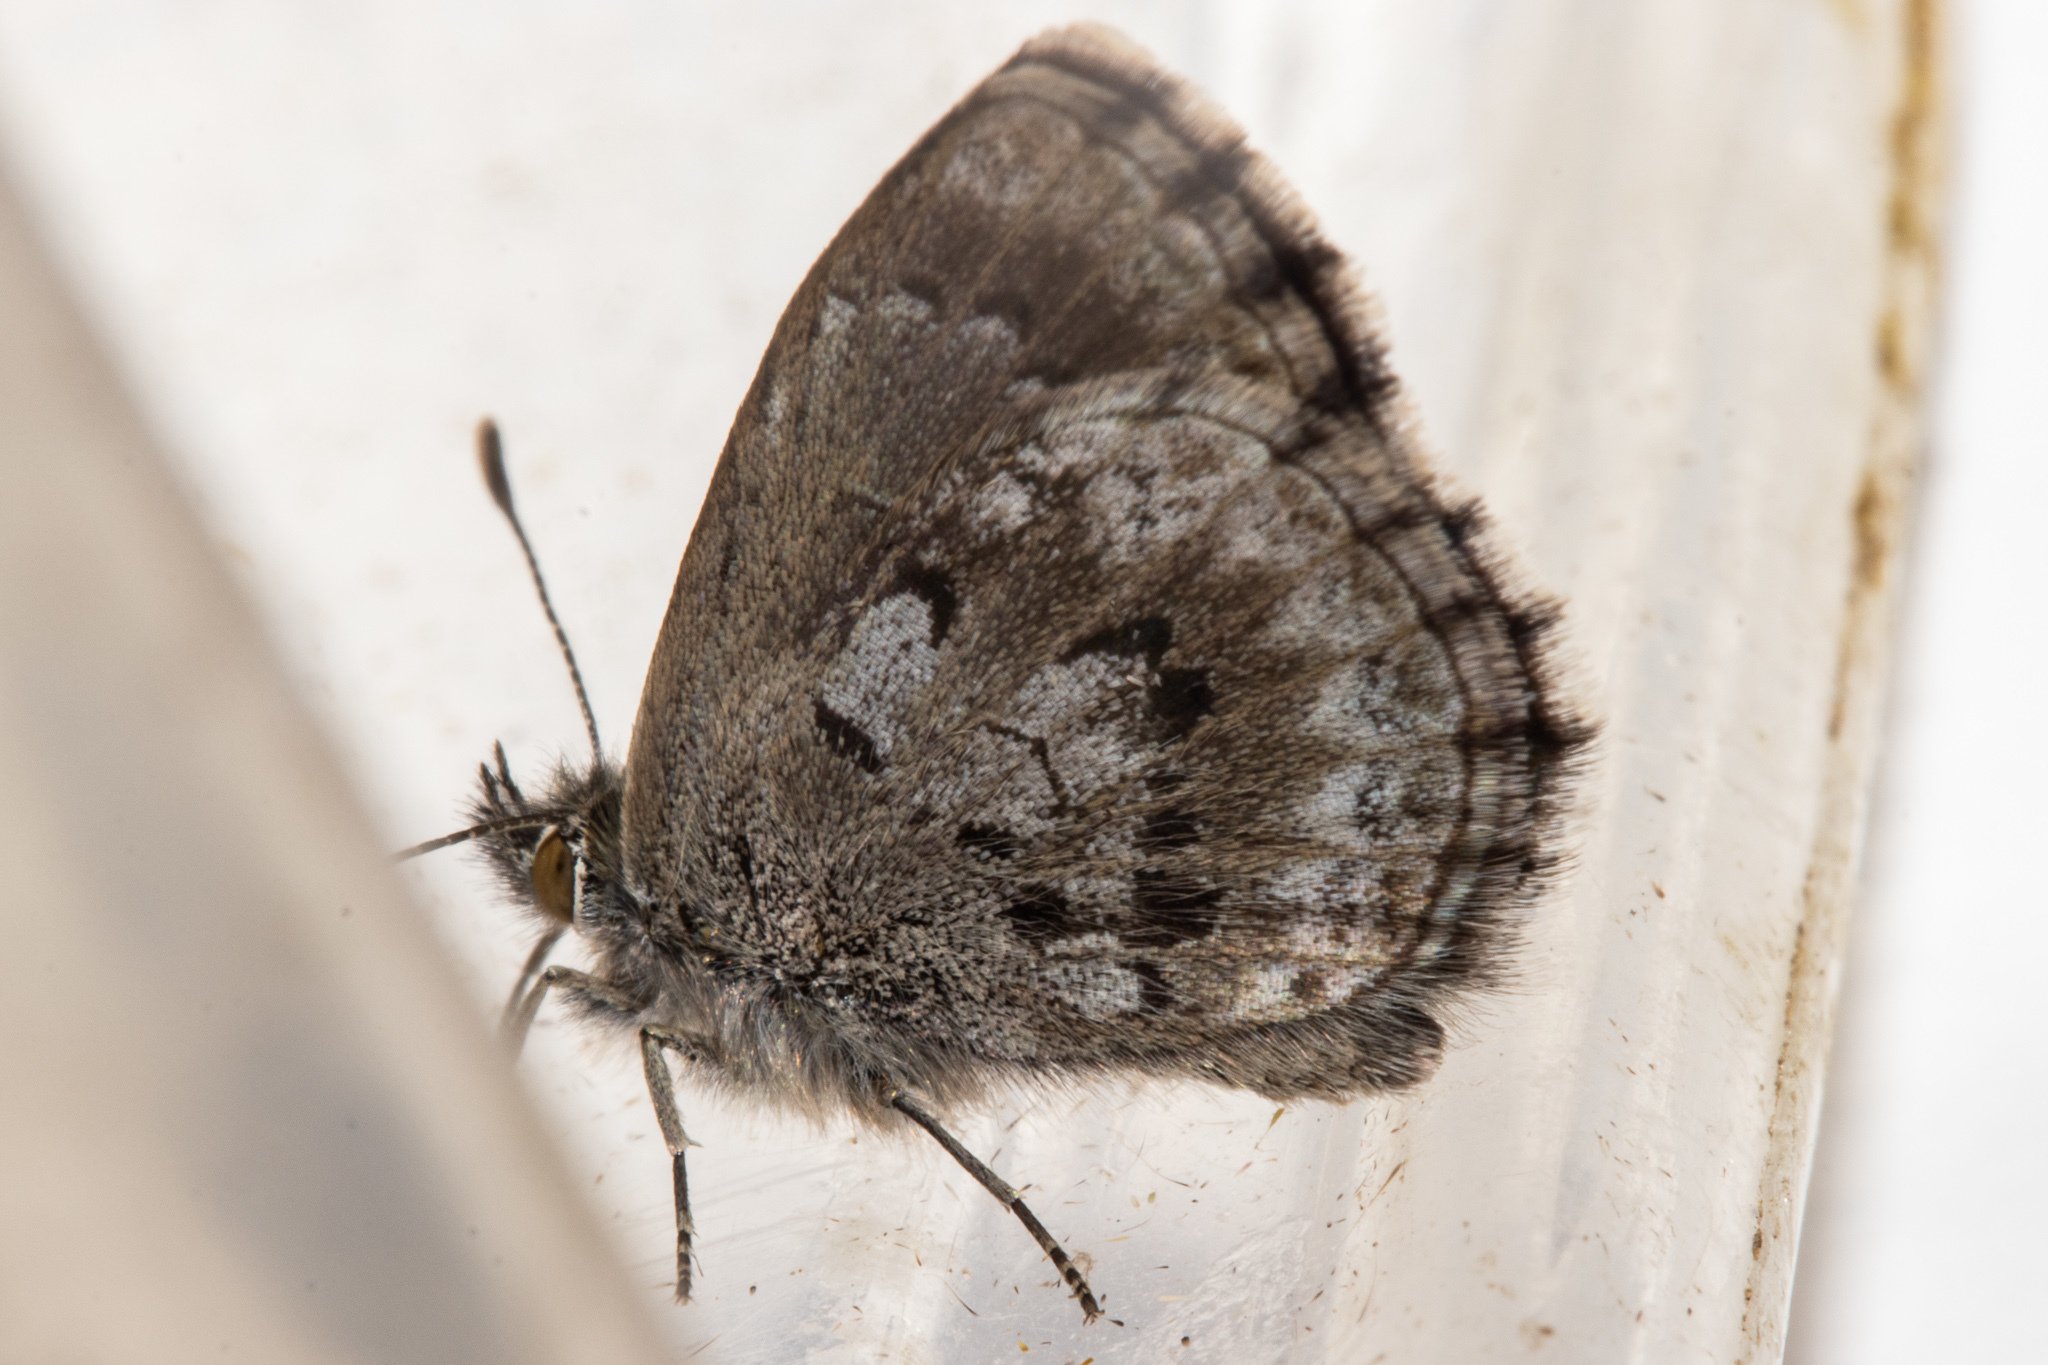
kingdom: Animalia
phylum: Arthropoda
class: Insecta
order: Lepidoptera
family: Lycaenidae
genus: Zizina
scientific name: Zizina oxleyi
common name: Southern blue
